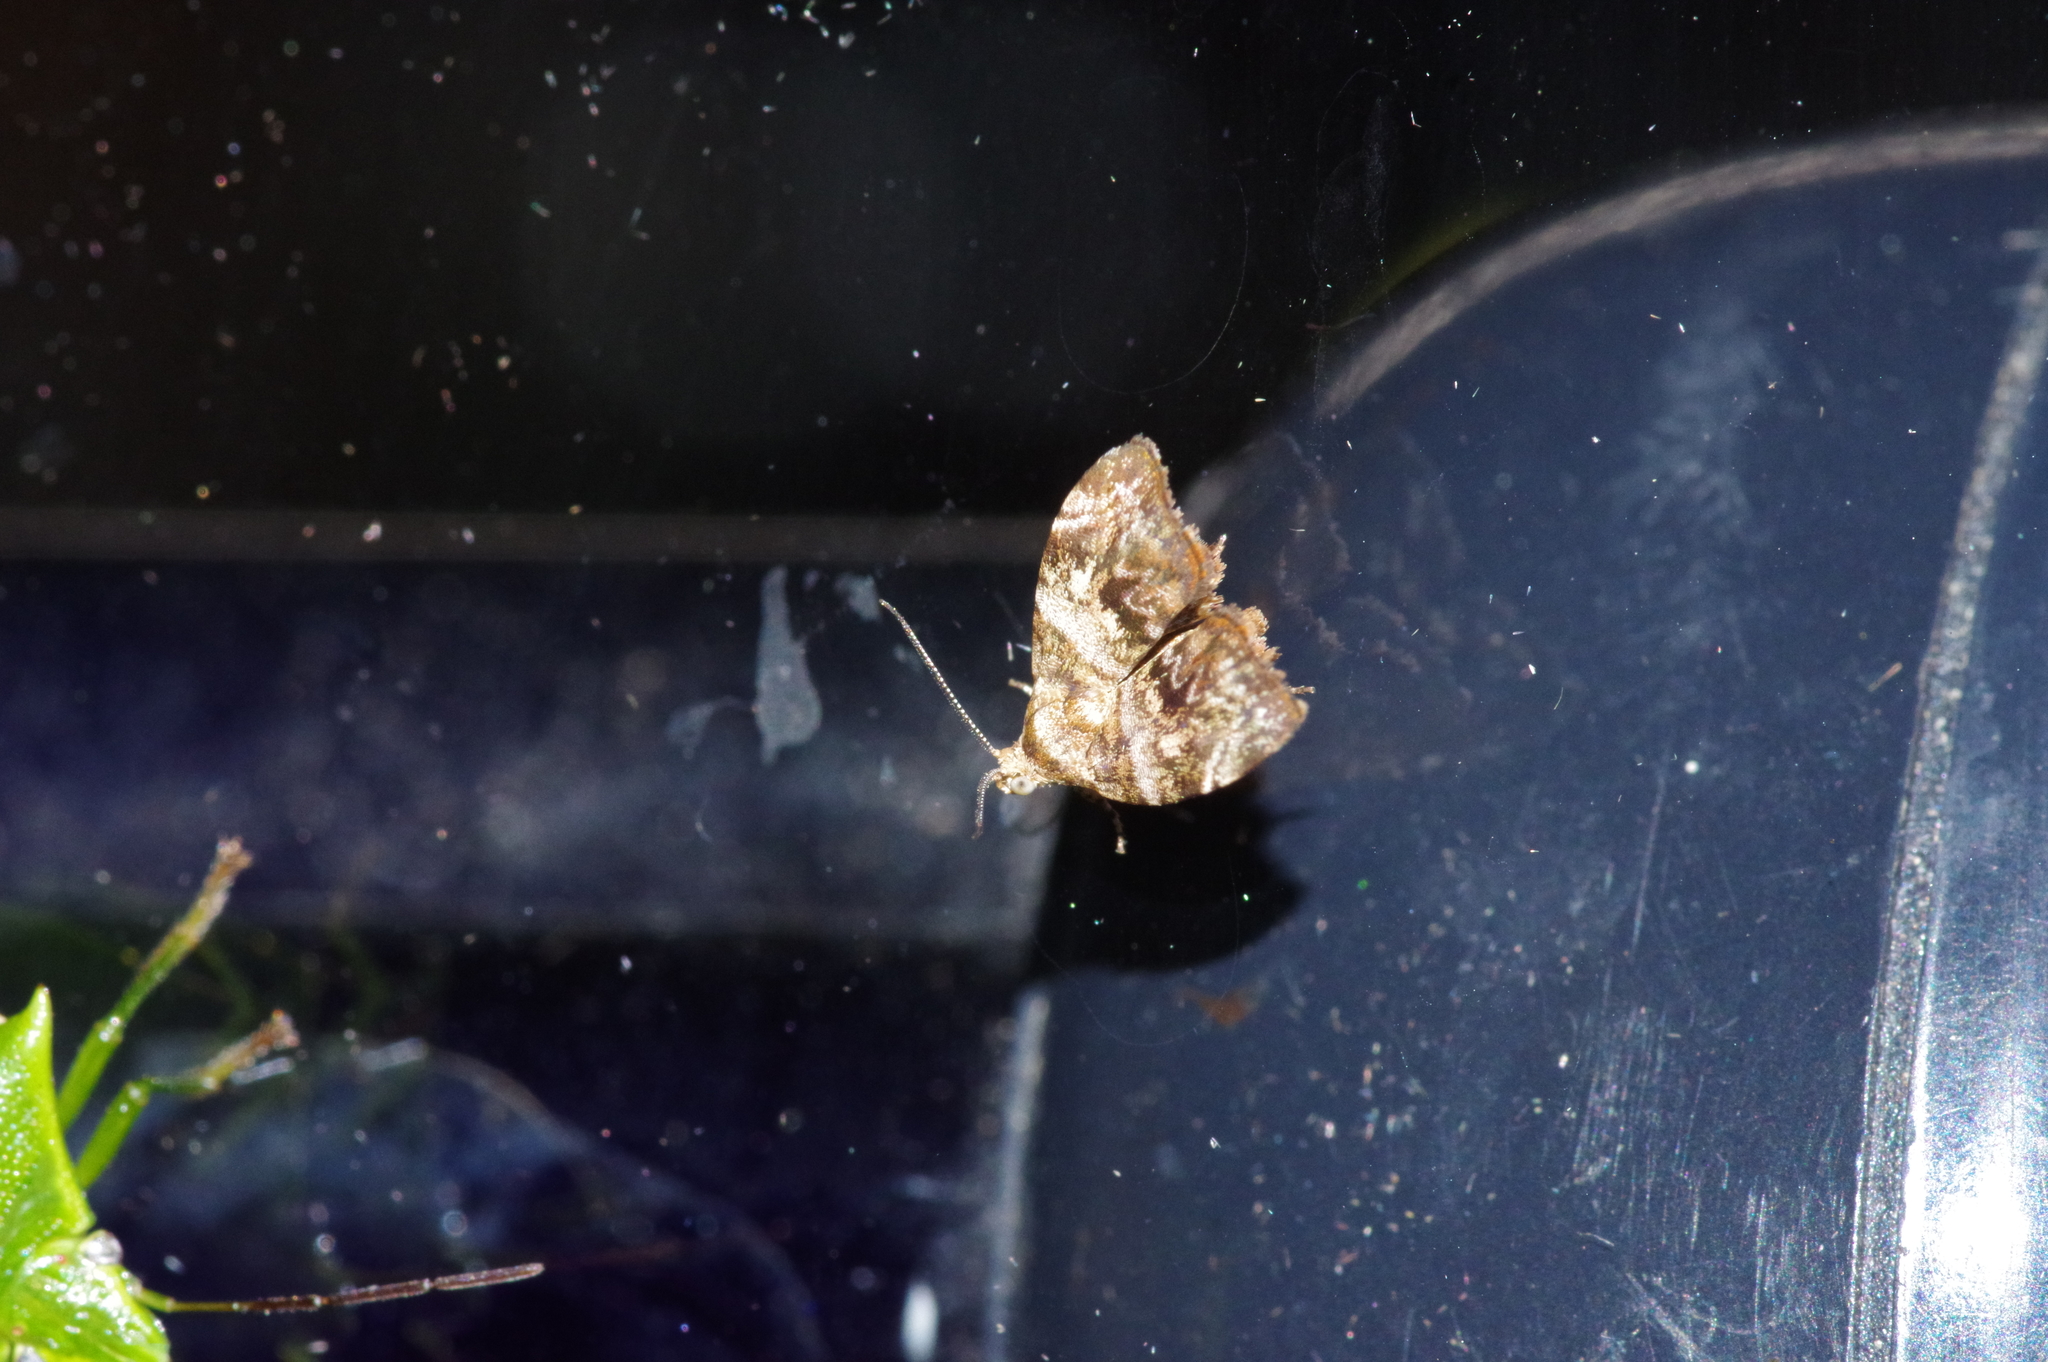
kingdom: Animalia
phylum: Arthropoda
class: Insecta
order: Lepidoptera
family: Choreutidae
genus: Choreutis
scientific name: Choreutis
